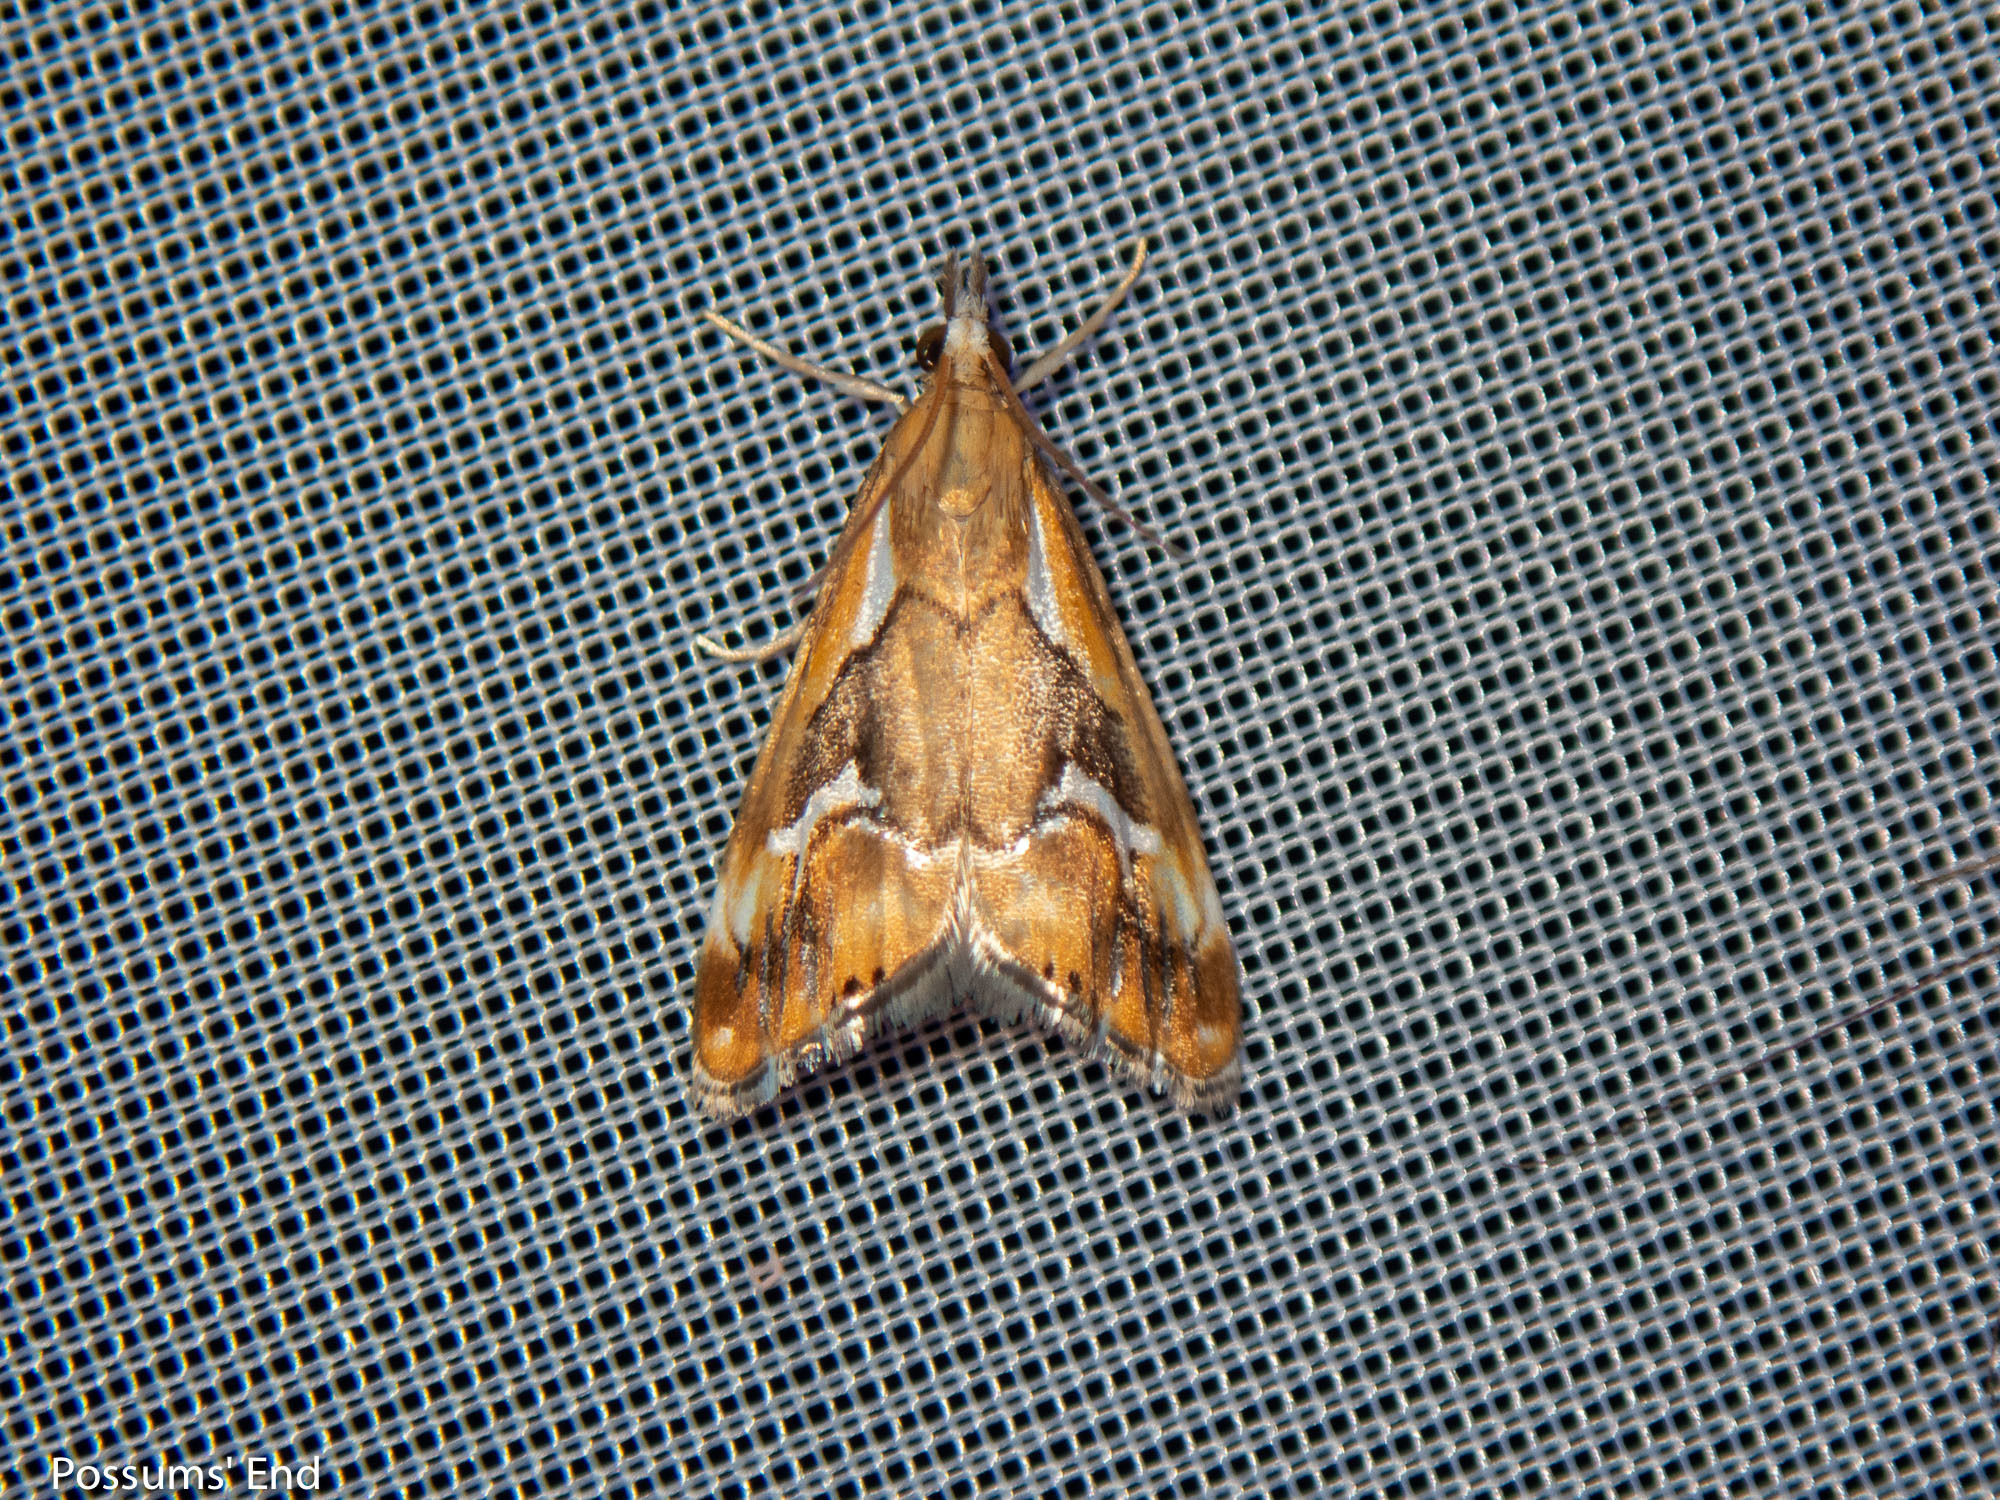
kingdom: Animalia
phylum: Arthropoda
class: Insecta
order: Lepidoptera
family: Crambidae
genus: Glaucocharis
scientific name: Glaucocharis interruptus
